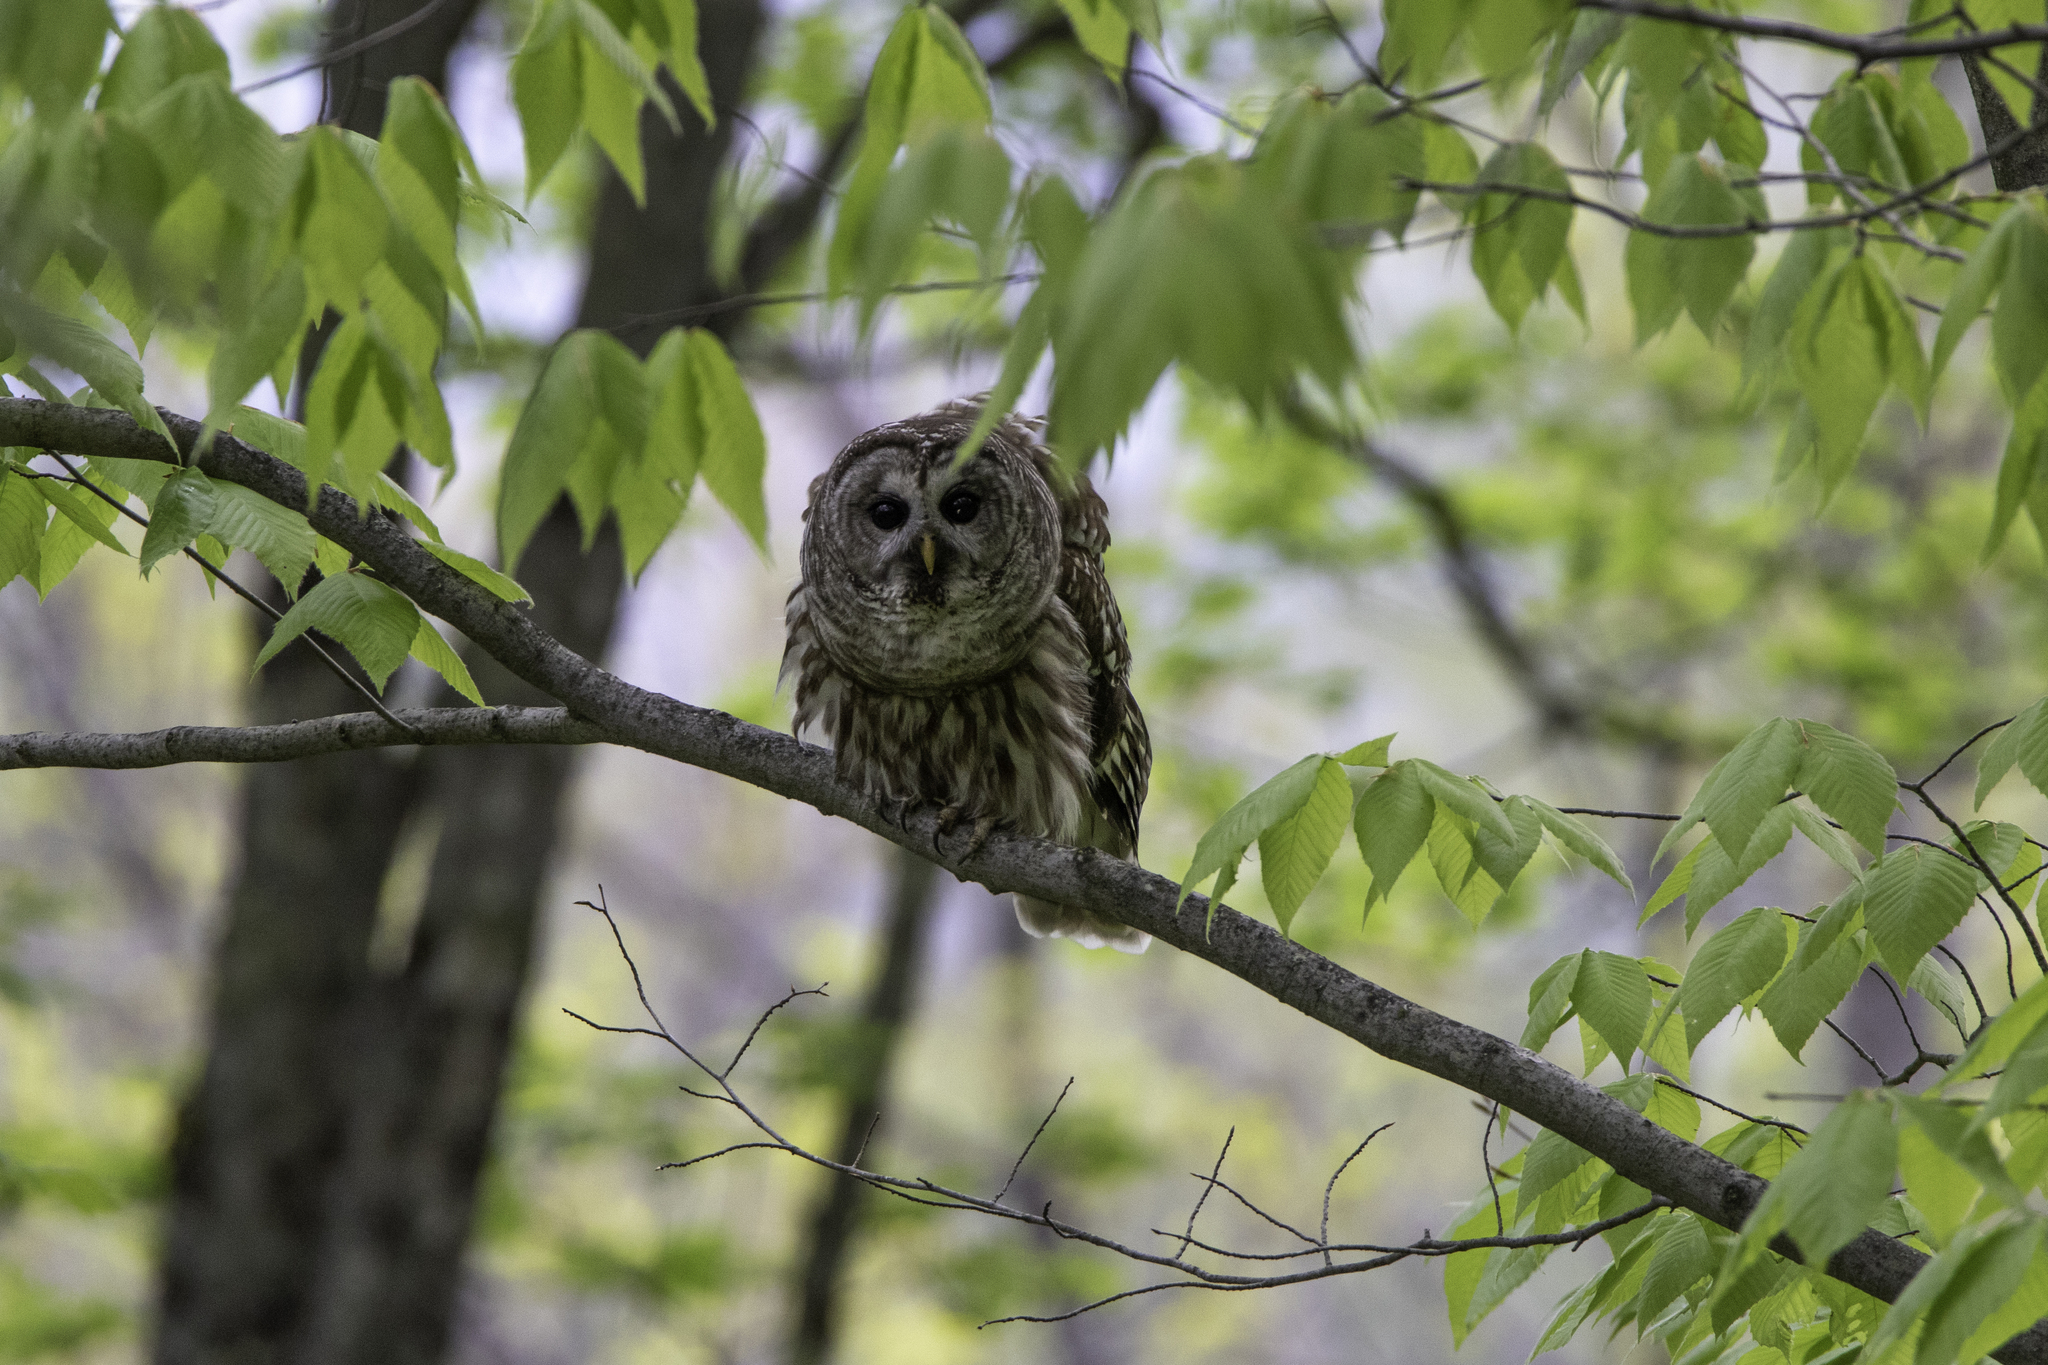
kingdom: Animalia
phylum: Chordata
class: Aves
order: Strigiformes
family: Strigidae
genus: Strix
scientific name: Strix varia
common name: Barred owl
